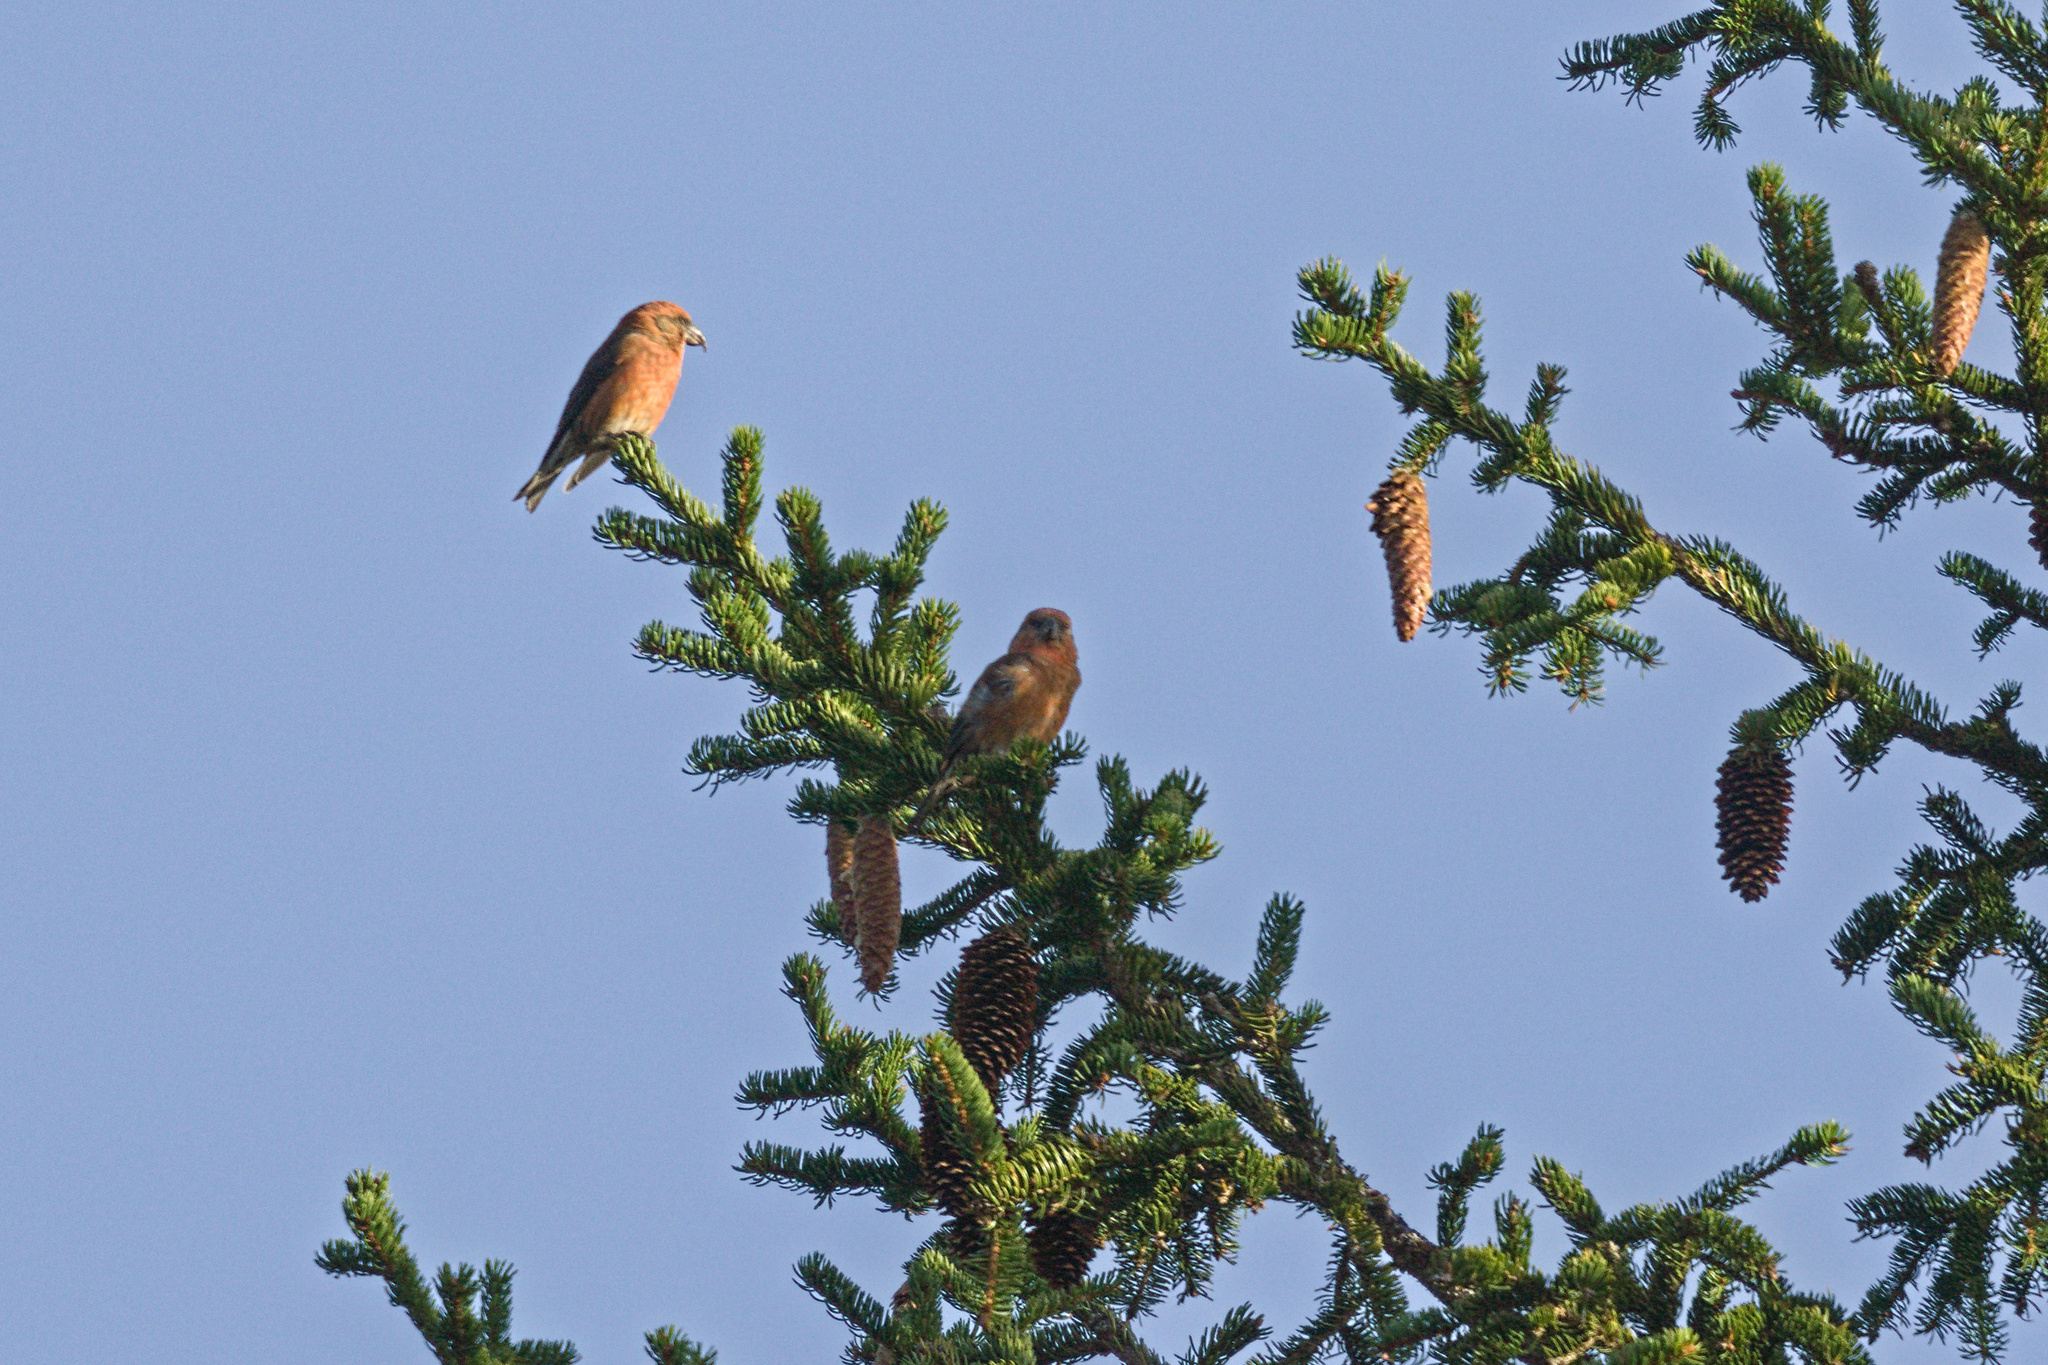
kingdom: Animalia
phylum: Chordata
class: Aves
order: Passeriformes
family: Fringillidae
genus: Loxia
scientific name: Loxia curvirostra
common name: Red crossbill
